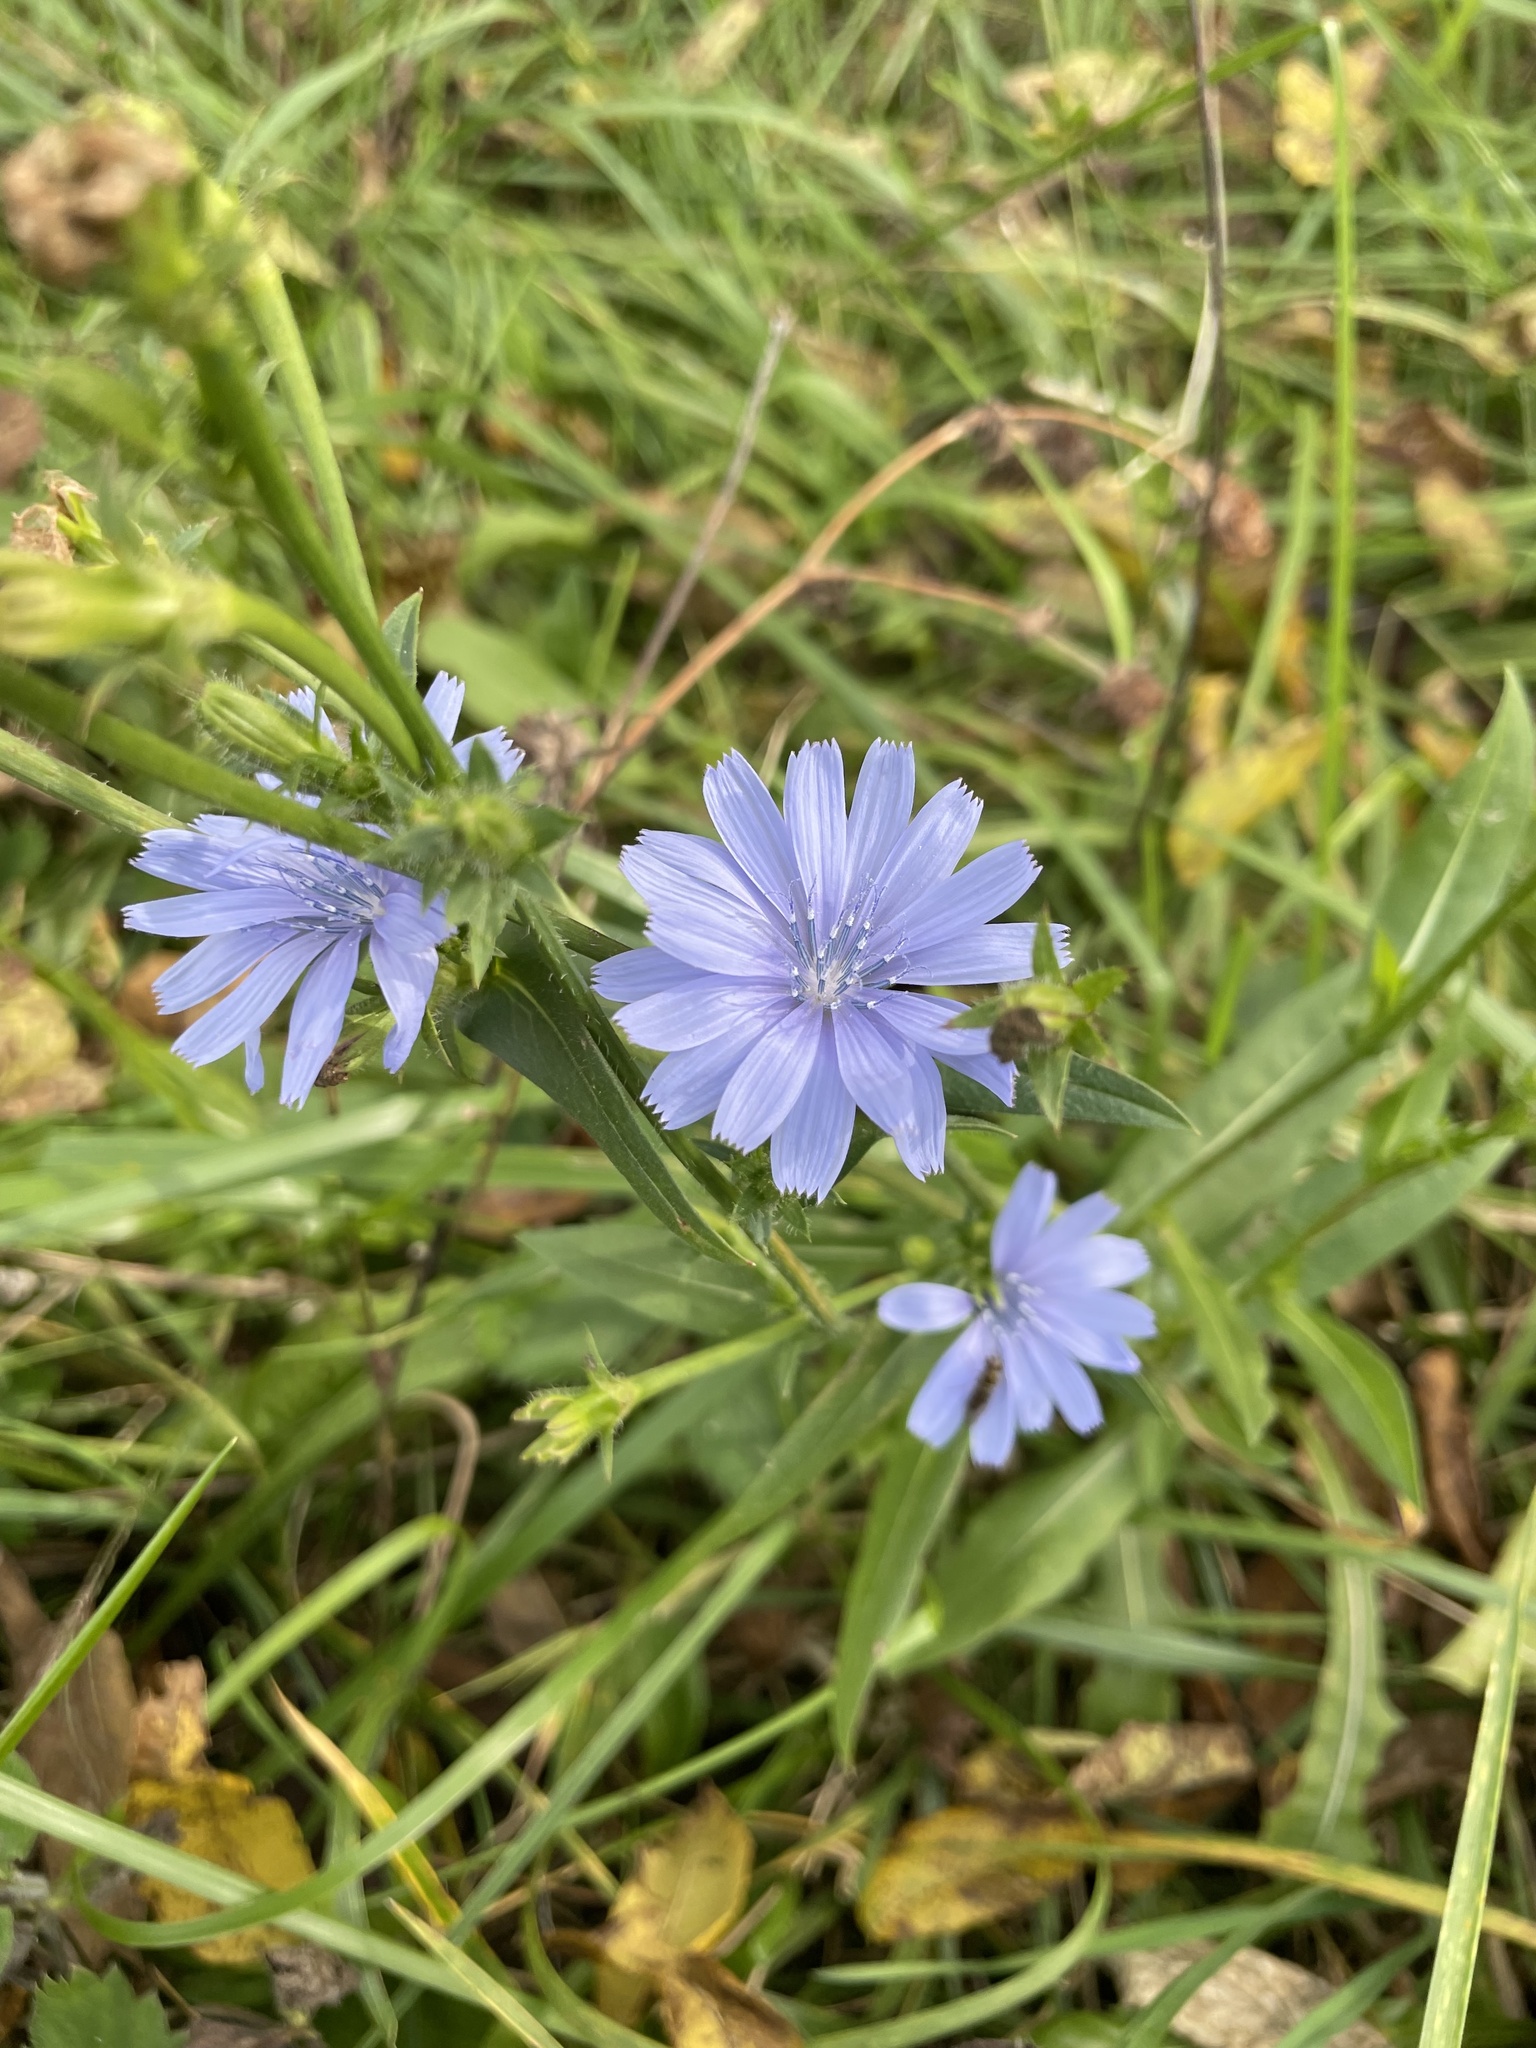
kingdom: Plantae
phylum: Tracheophyta
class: Magnoliopsida
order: Asterales
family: Asteraceae
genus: Cichorium
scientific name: Cichorium intybus
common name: Chicory
